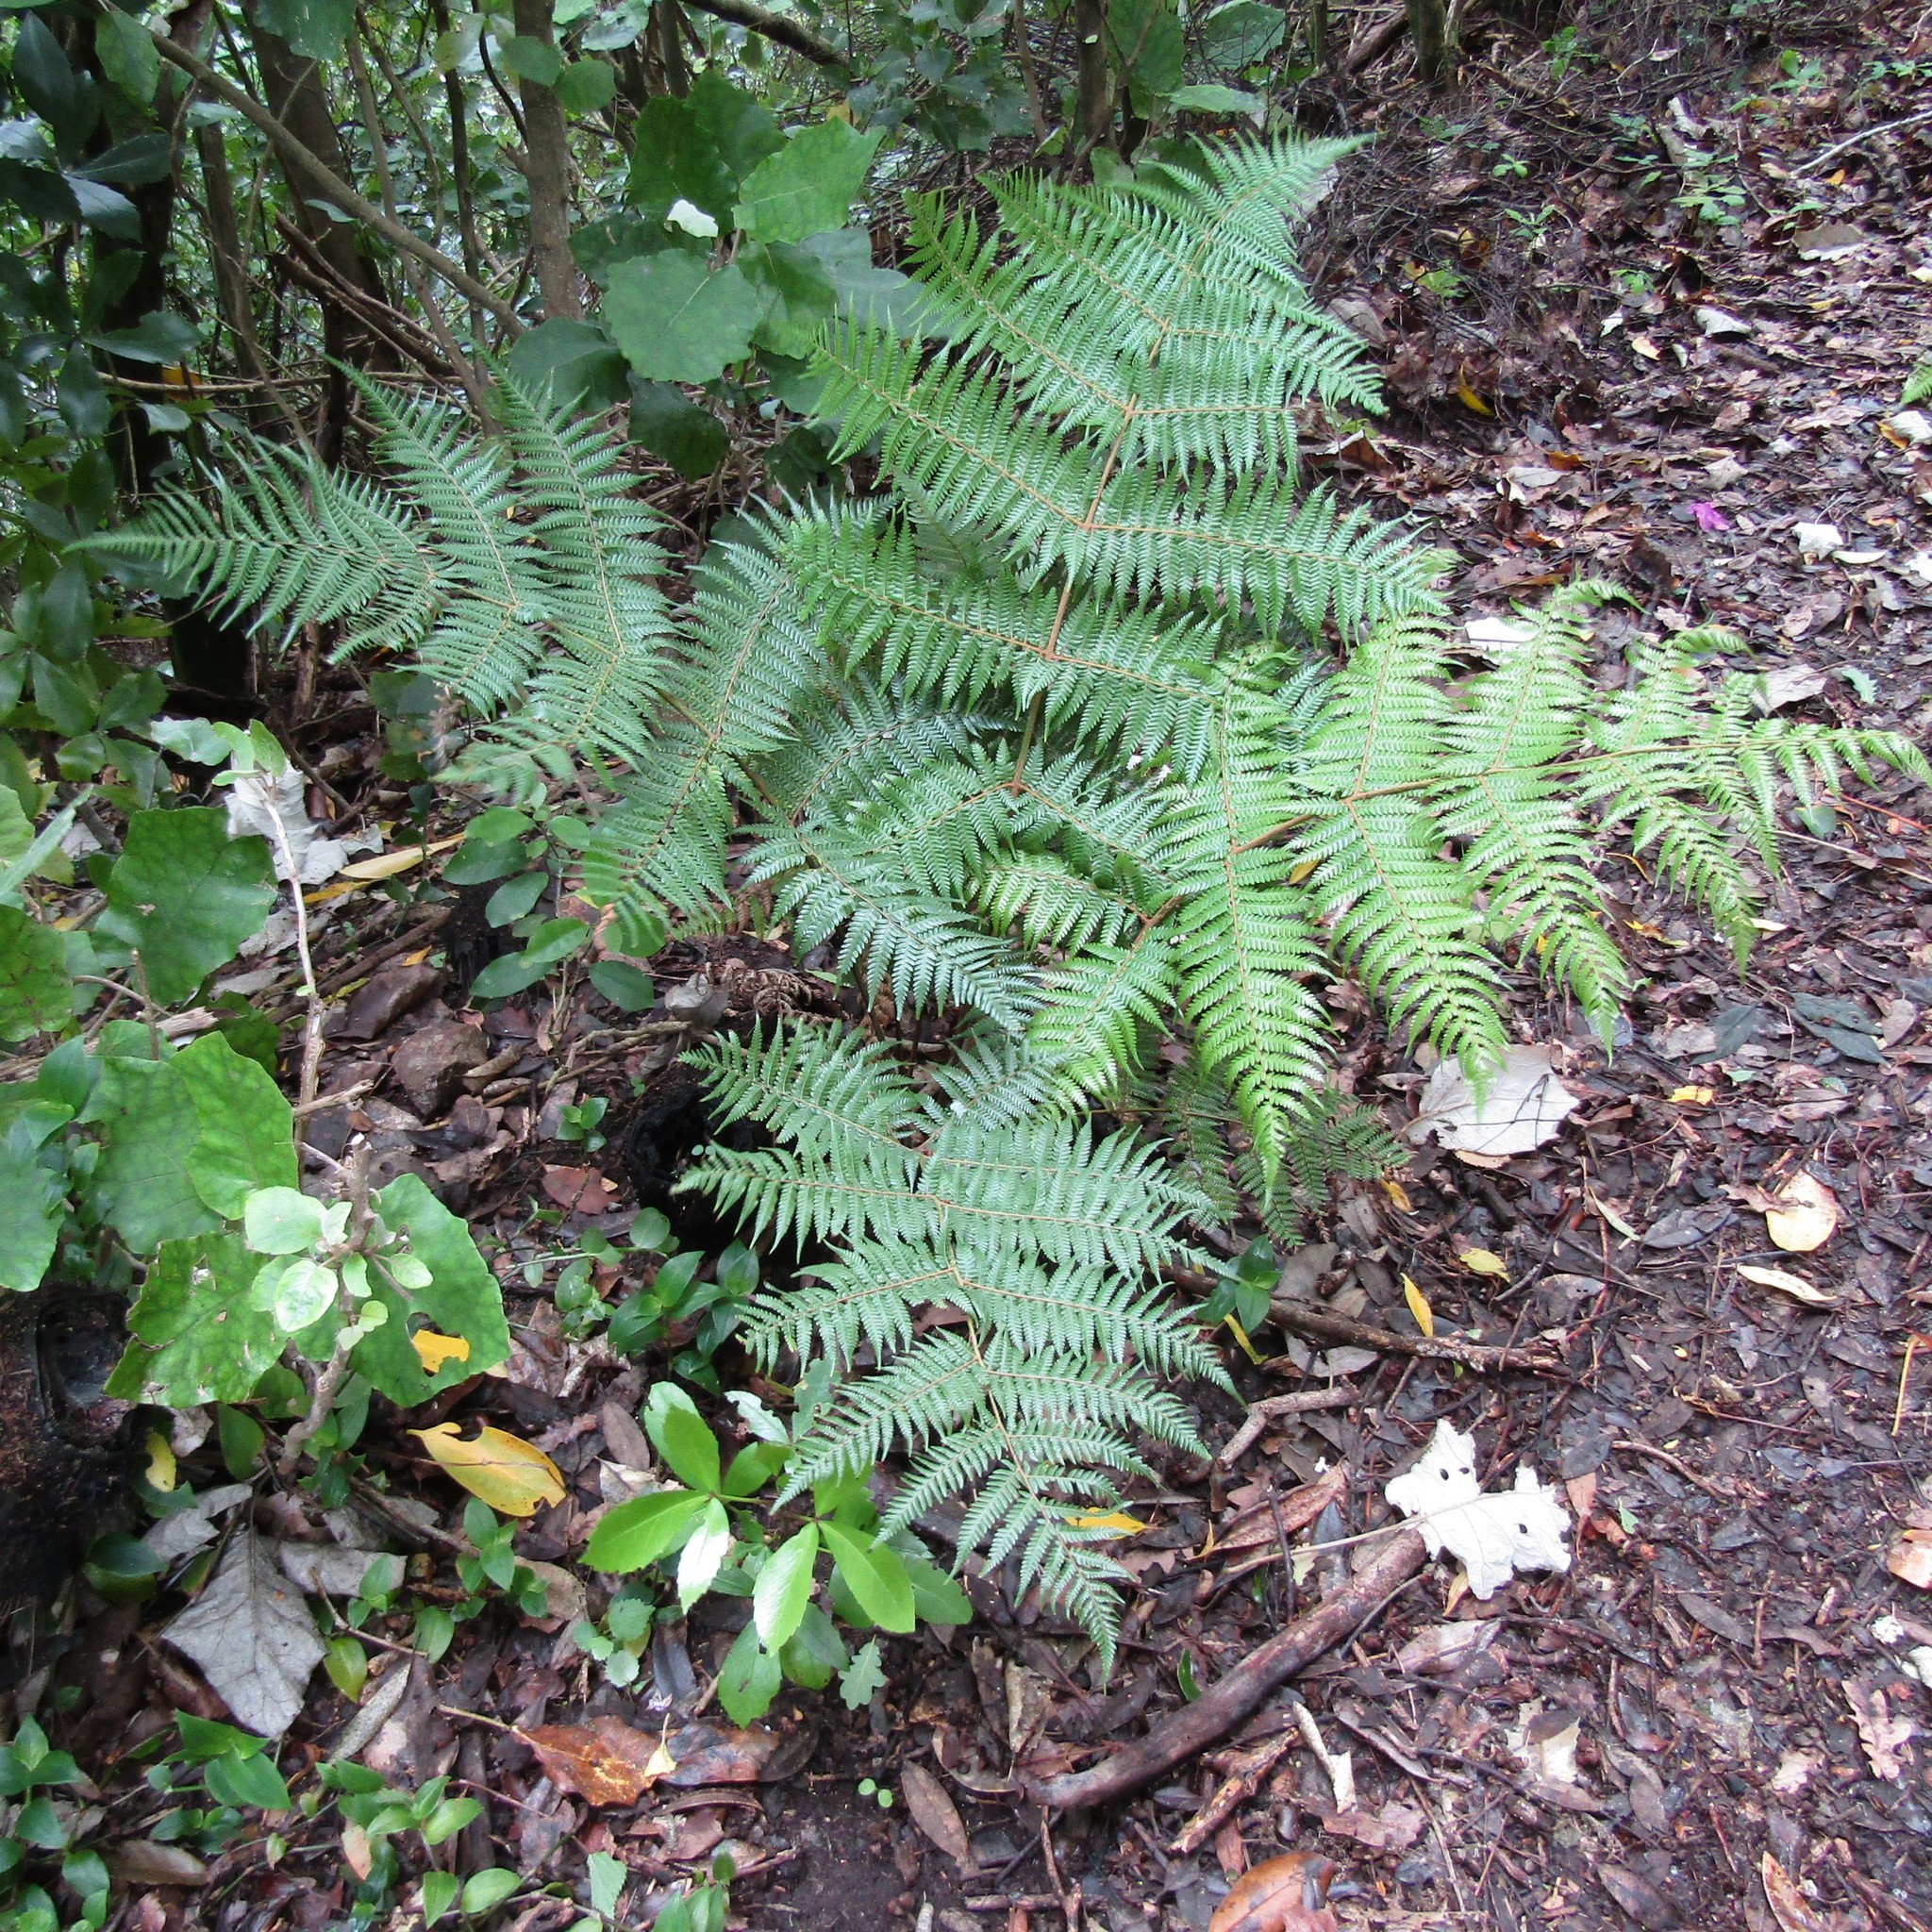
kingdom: Plantae
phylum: Tracheophyta
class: Polypodiopsida
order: Cyatheales
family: Cyatheaceae
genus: Alsophila
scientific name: Alsophila dealbata
